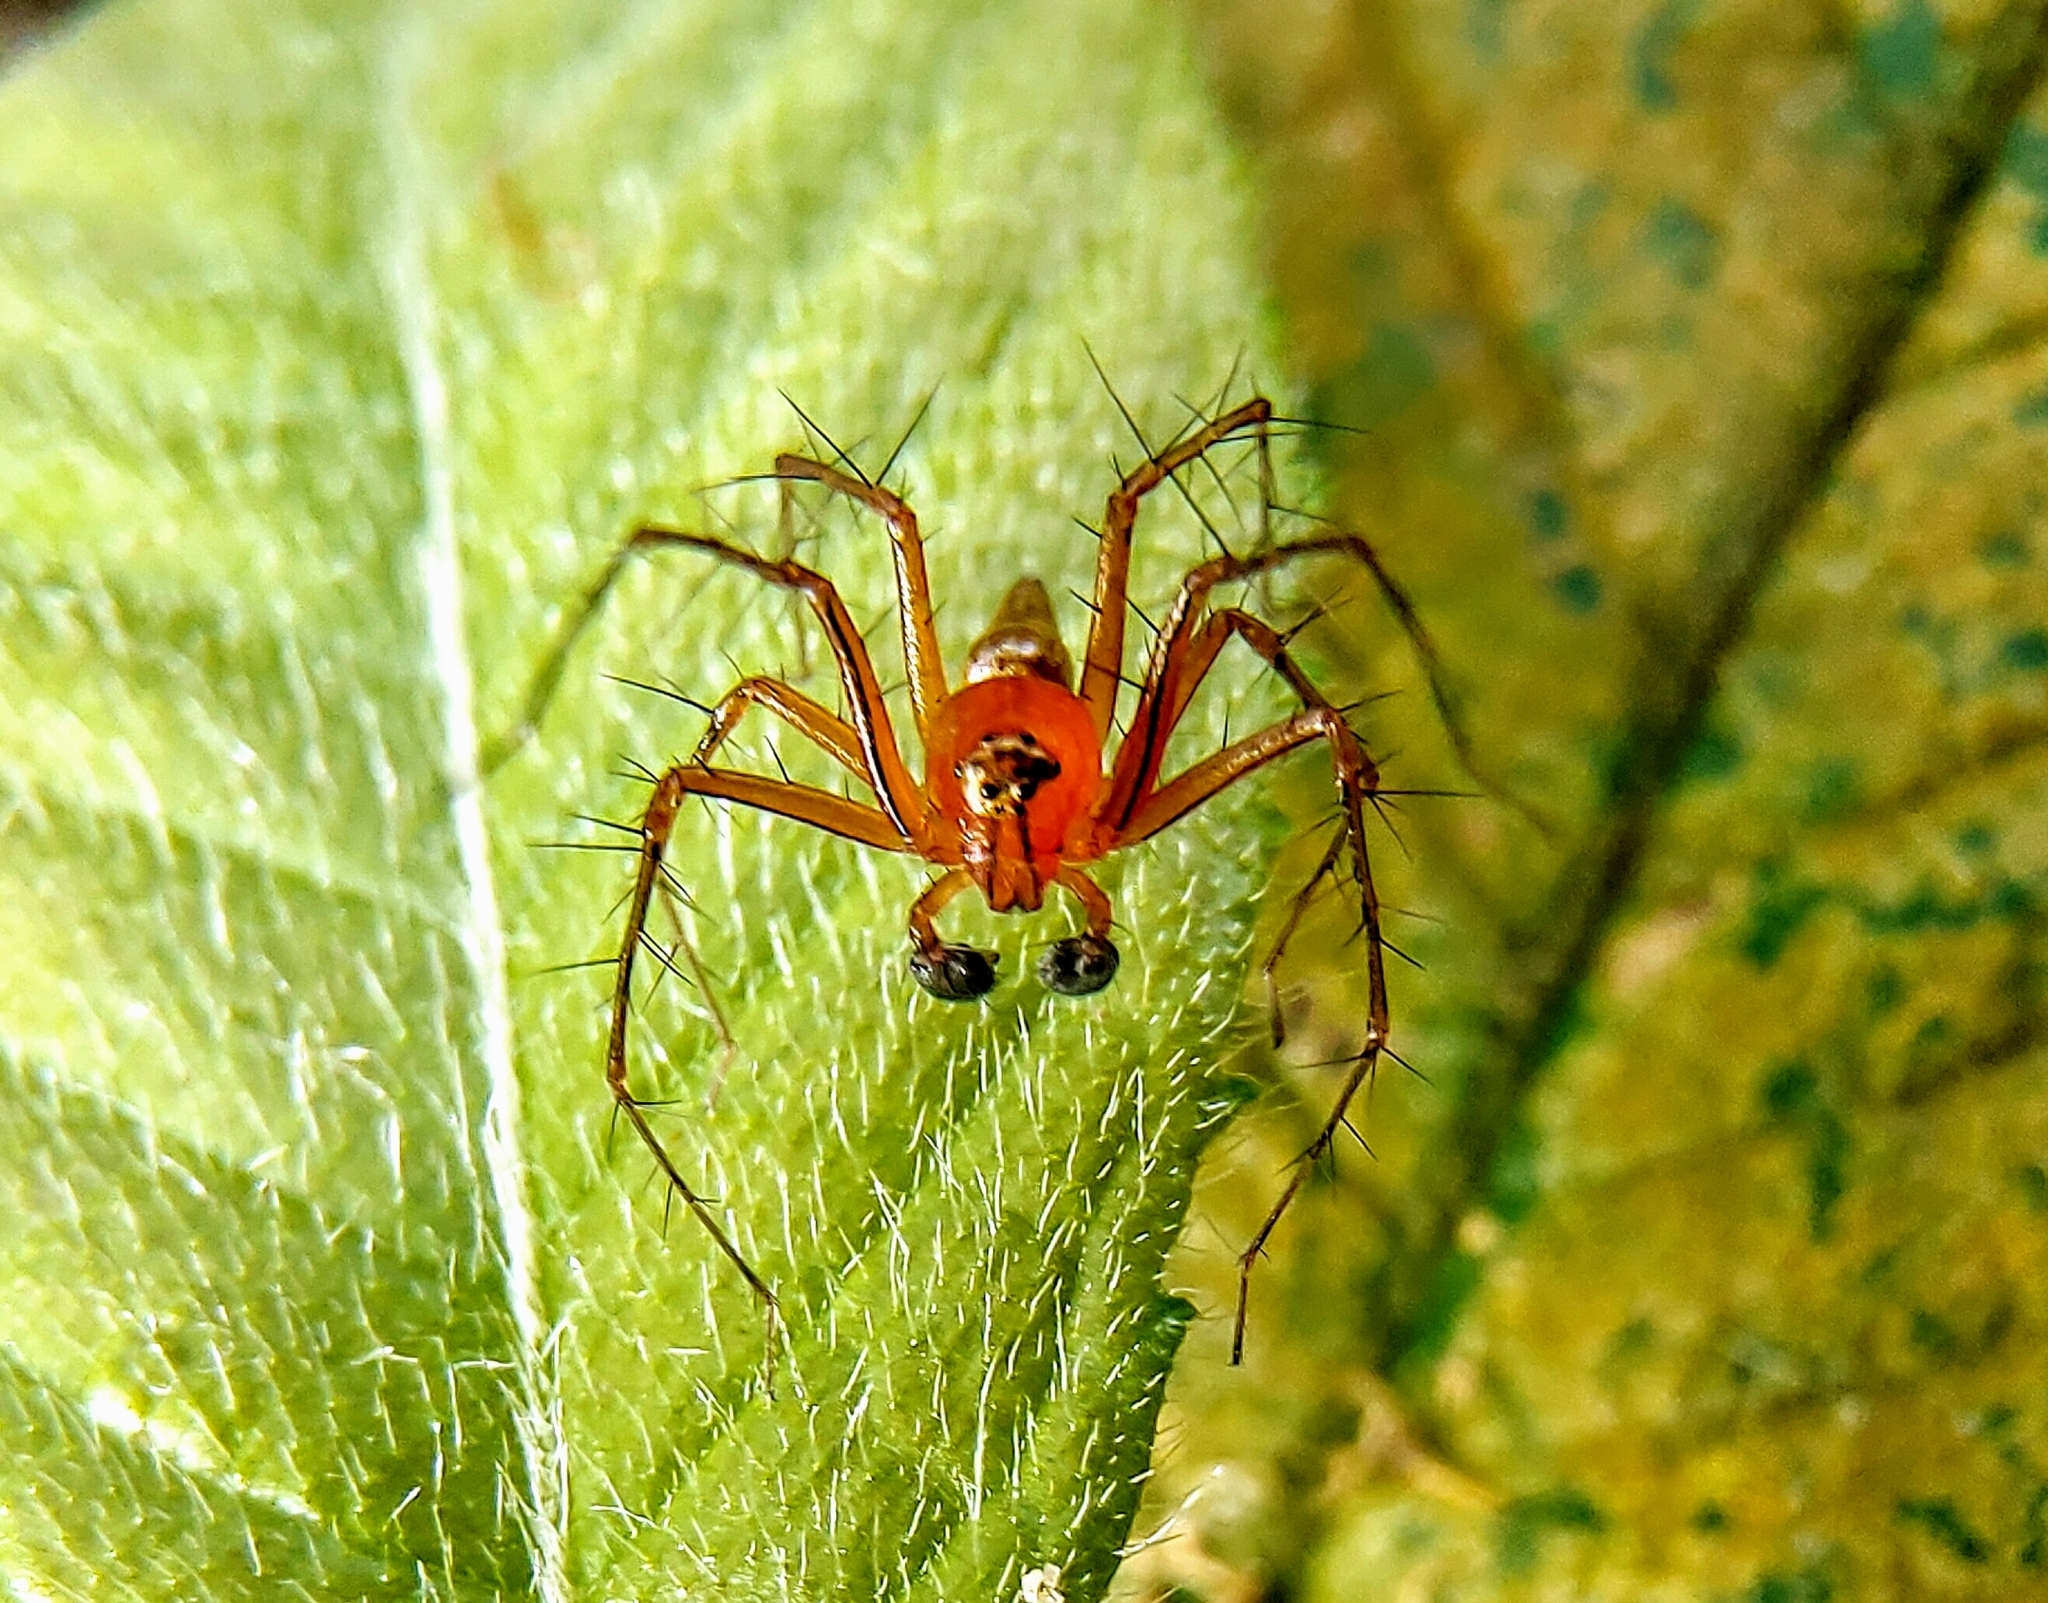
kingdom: Animalia
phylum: Arthropoda
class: Arachnida
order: Araneae
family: Oxyopidae
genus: Oxyopes
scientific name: Oxyopes birmanicus
